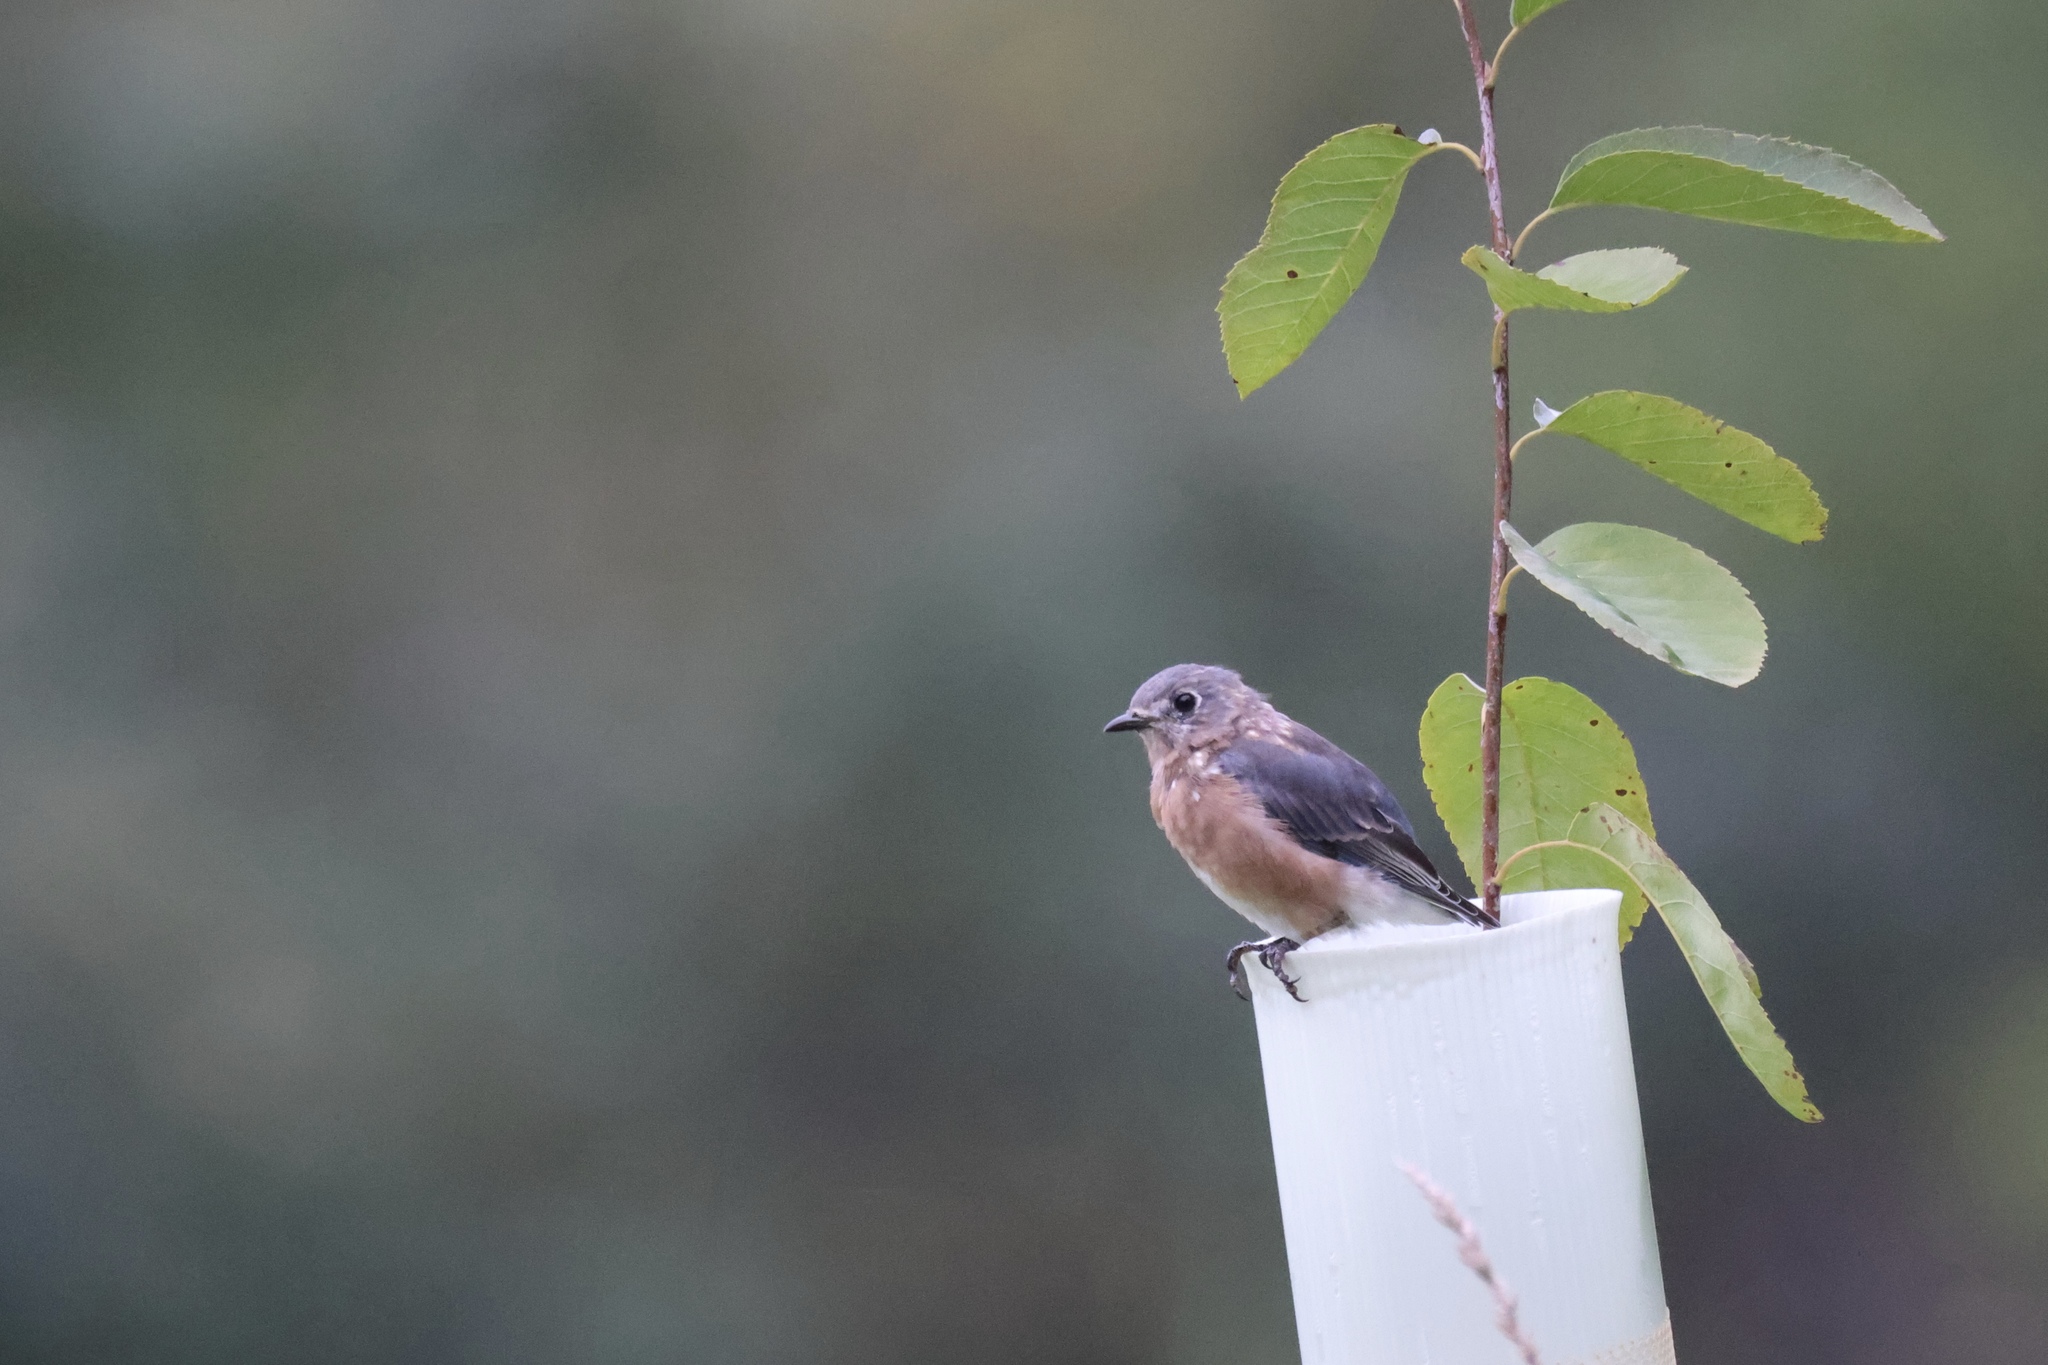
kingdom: Animalia
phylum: Chordata
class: Aves
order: Passeriformes
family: Turdidae
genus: Sialia
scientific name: Sialia sialis
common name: Eastern bluebird
